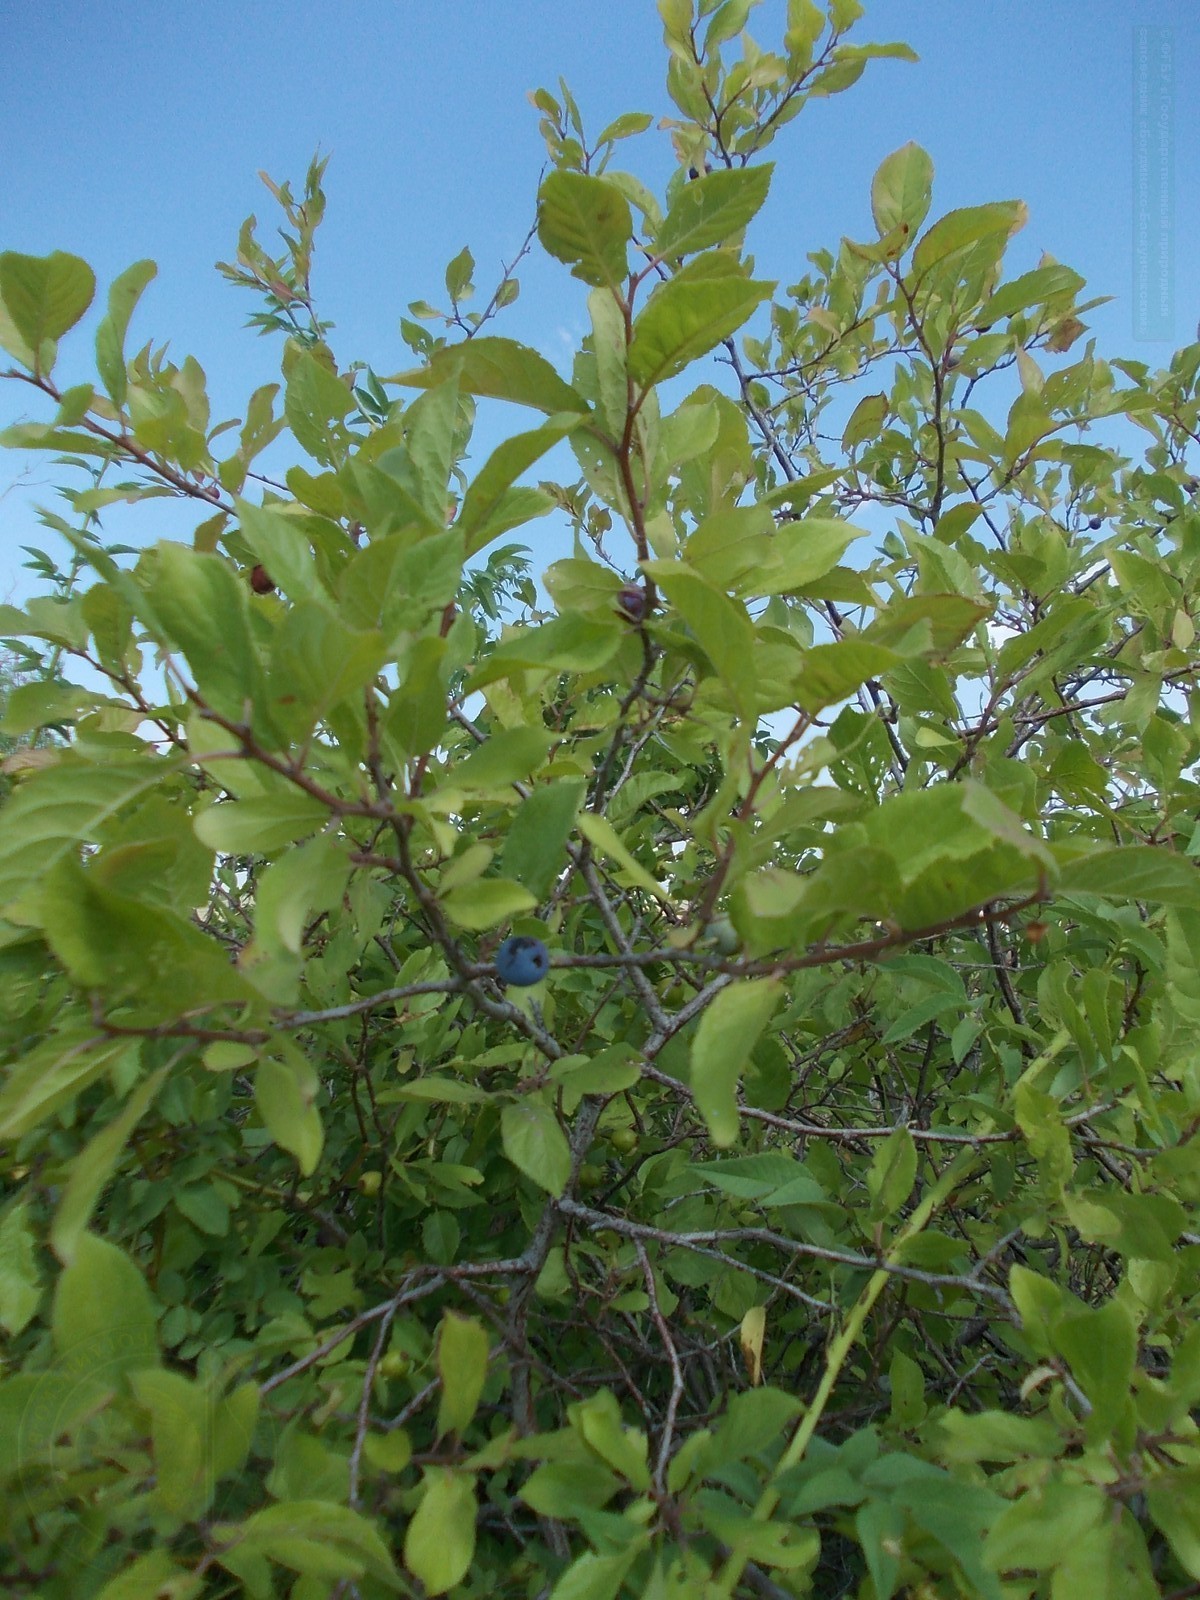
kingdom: Plantae
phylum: Tracheophyta
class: Magnoliopsida
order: Rosales
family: Rosaceae
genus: Prunus
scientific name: Prunus spinosa
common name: Blackthorn
